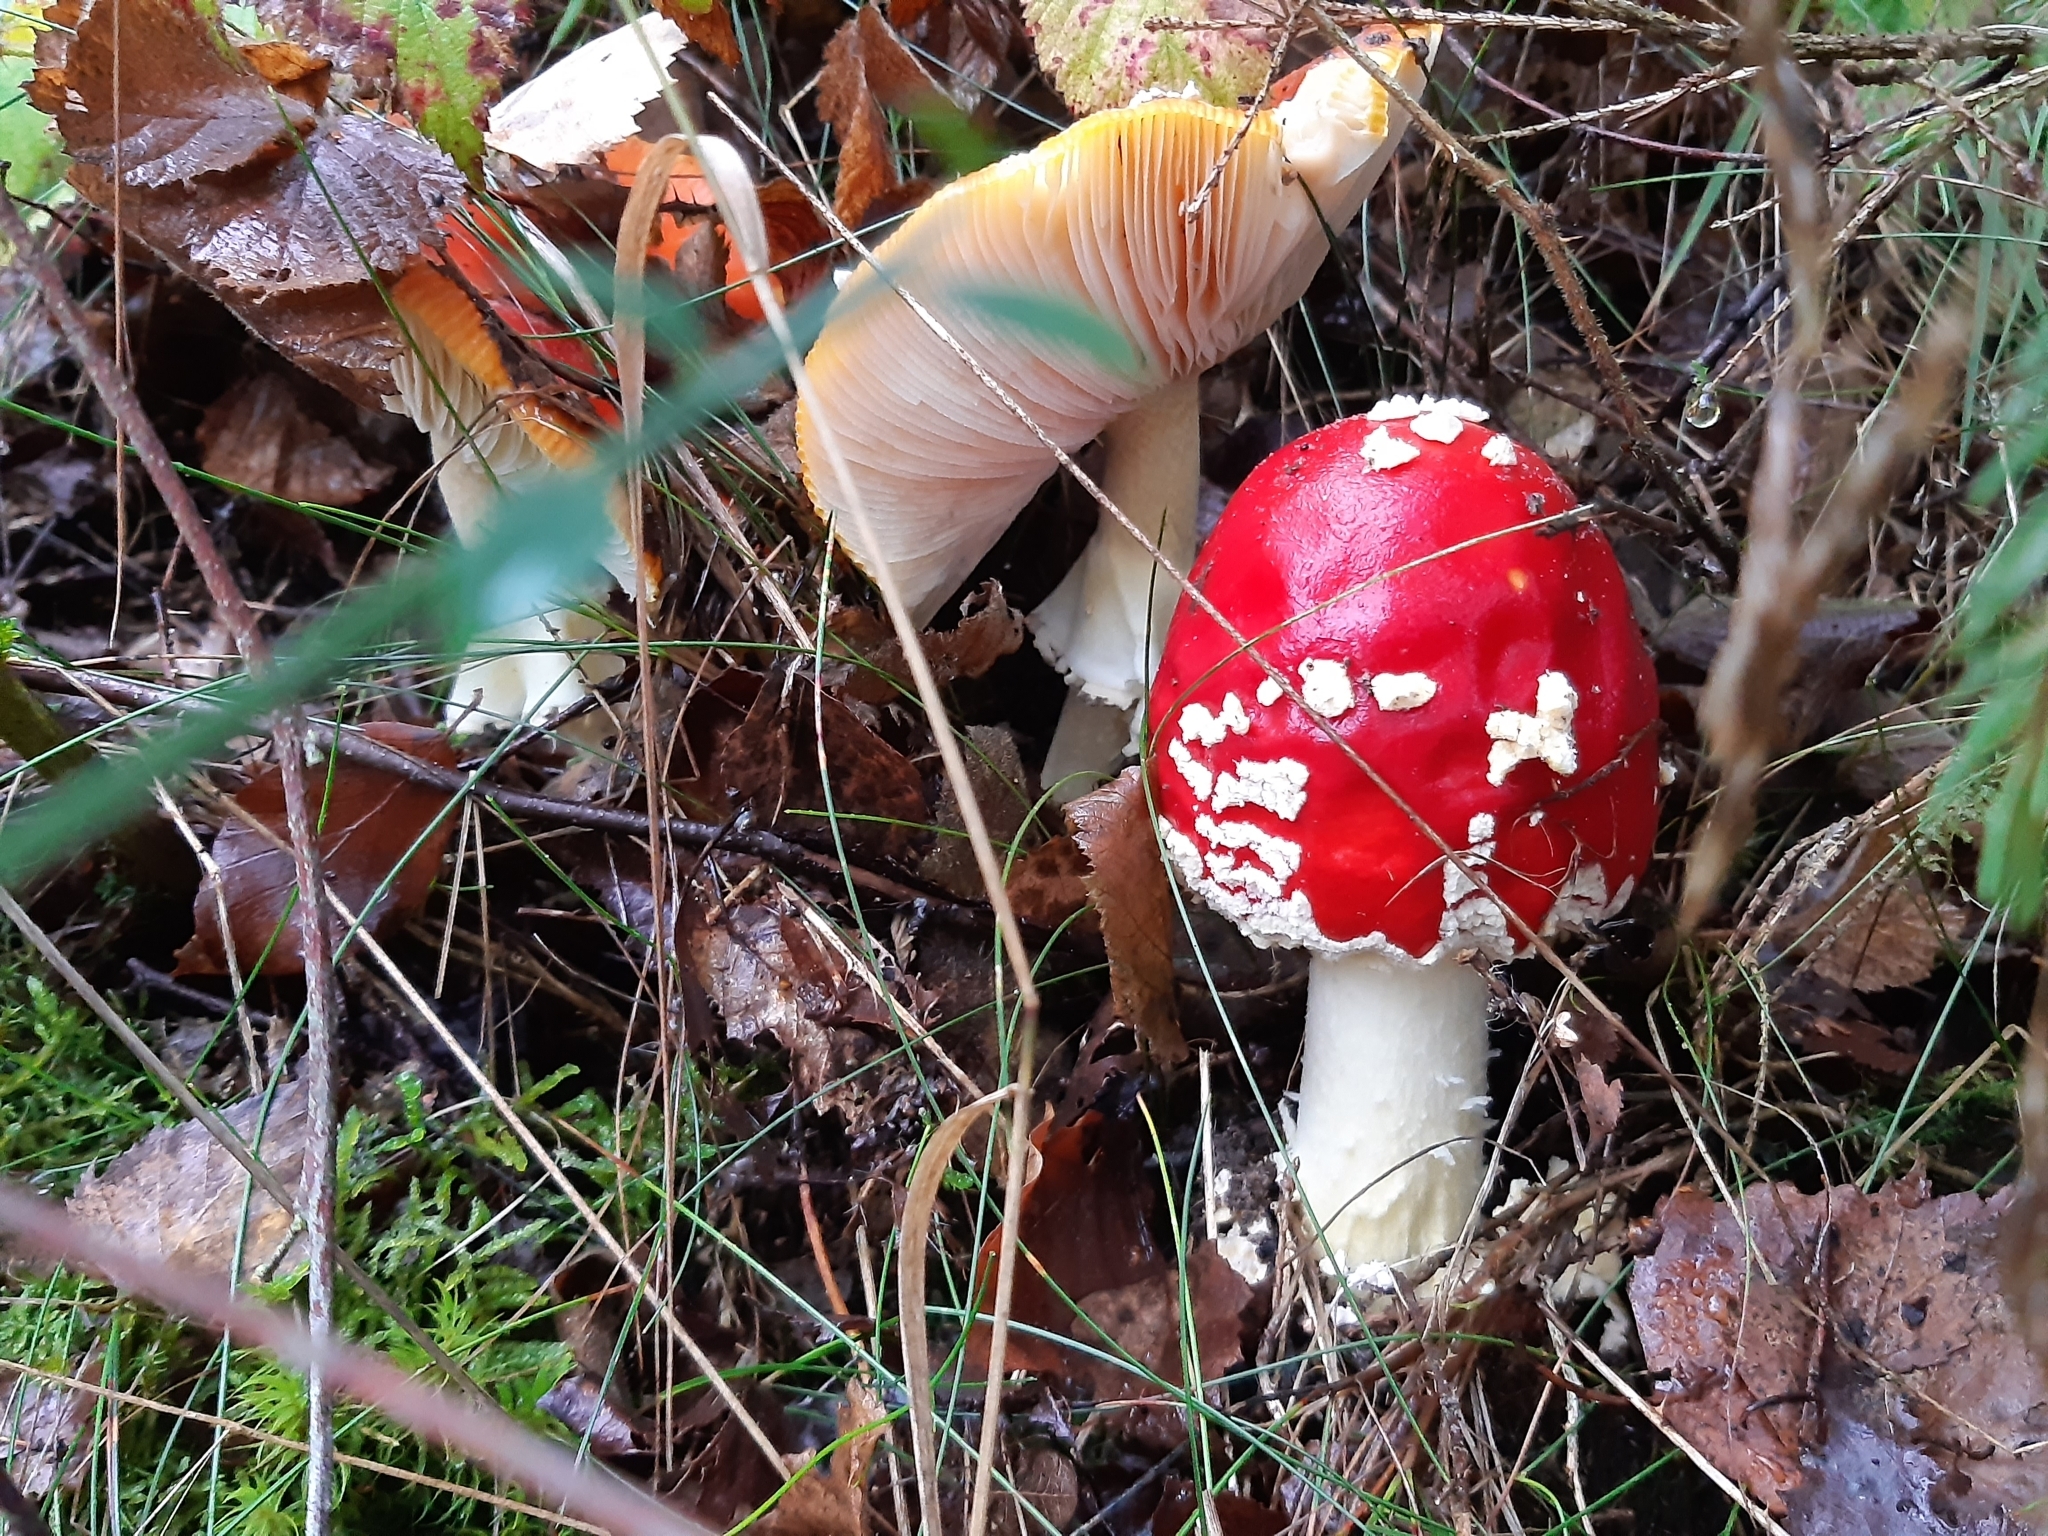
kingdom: Fungi
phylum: Basidiomycota
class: Agaricomycetes
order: Agaricales
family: Amanitaceae
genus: Amanita
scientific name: Amanita muscaria
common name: Fly agaric
